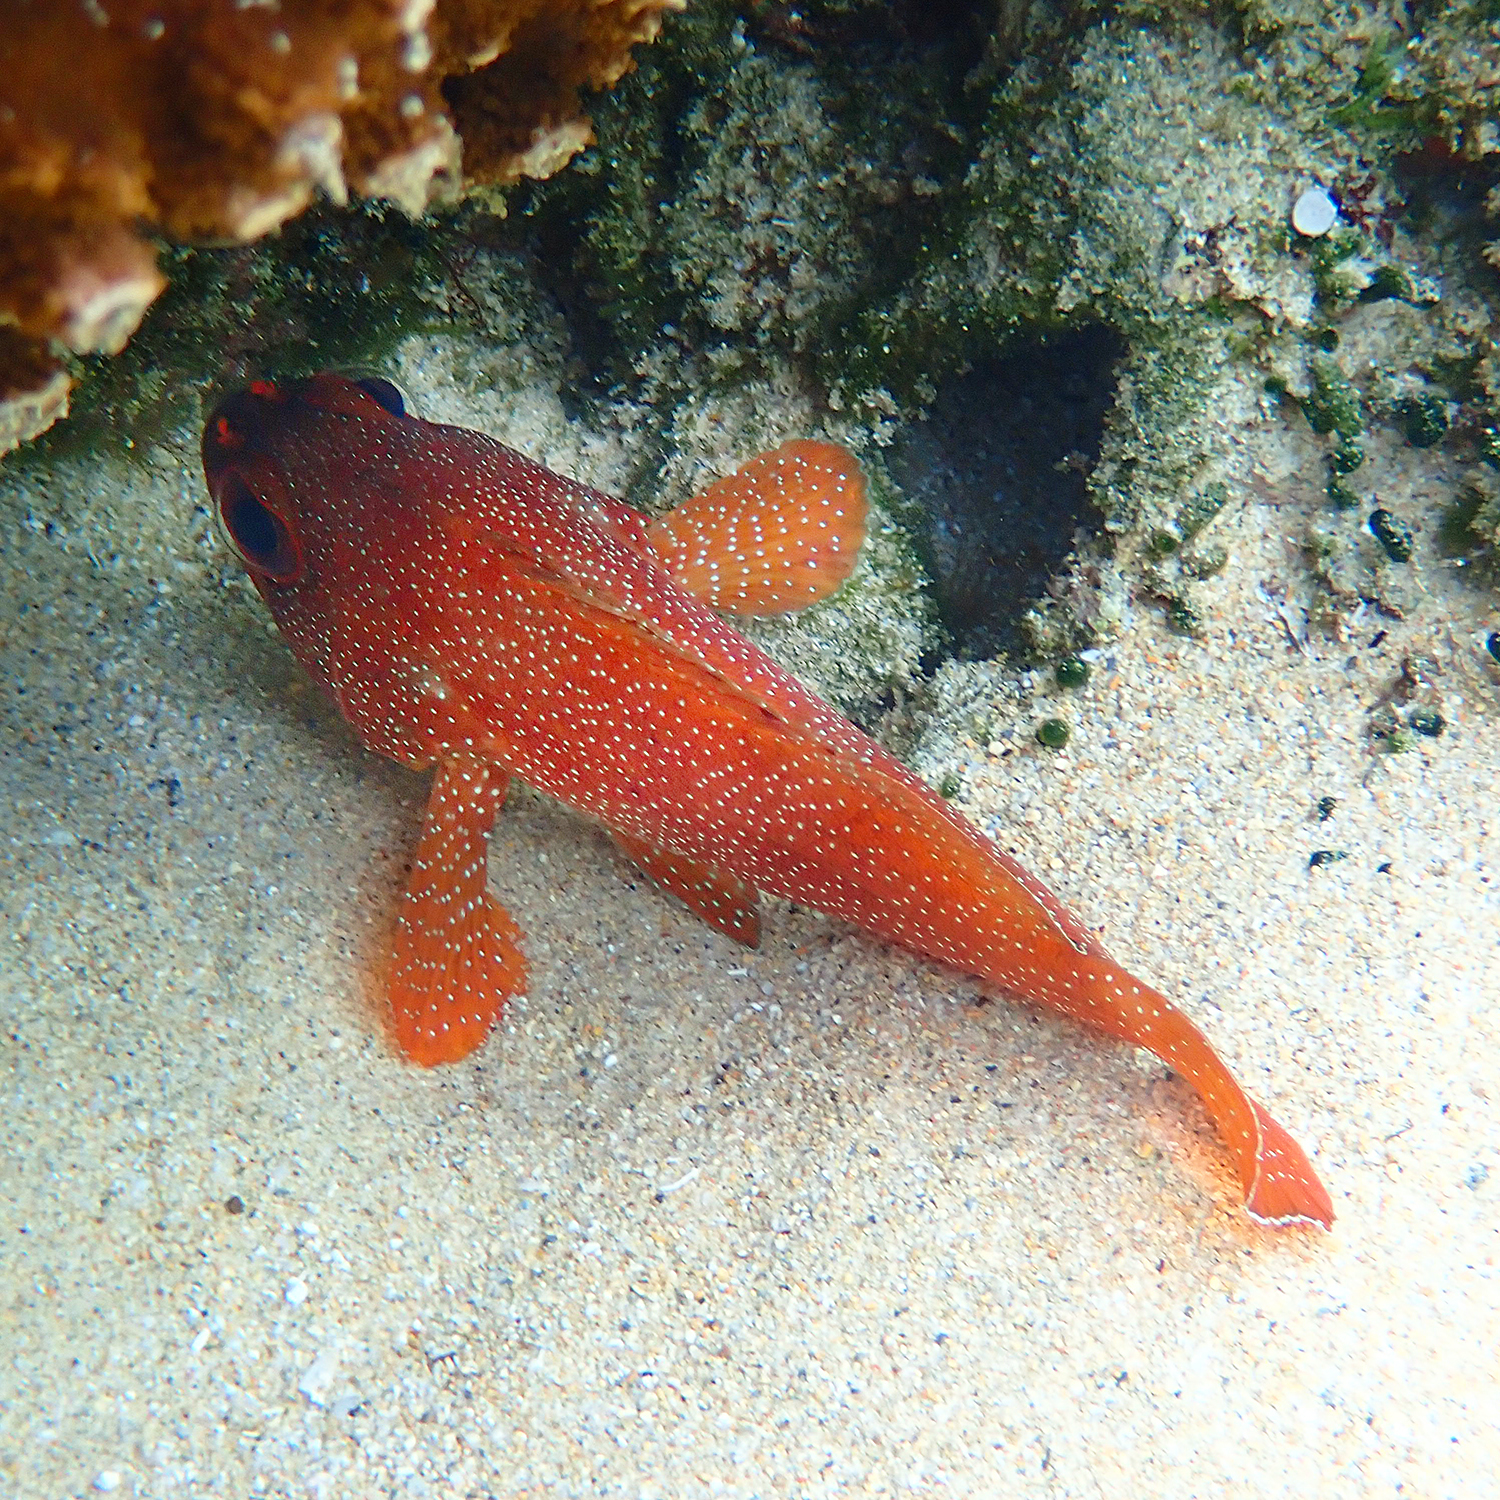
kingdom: Animalia
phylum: Chordata
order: Perciformes
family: Serranidae
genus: Trachypoma
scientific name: Trachypoma macracanthus
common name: Toadstool grouper
